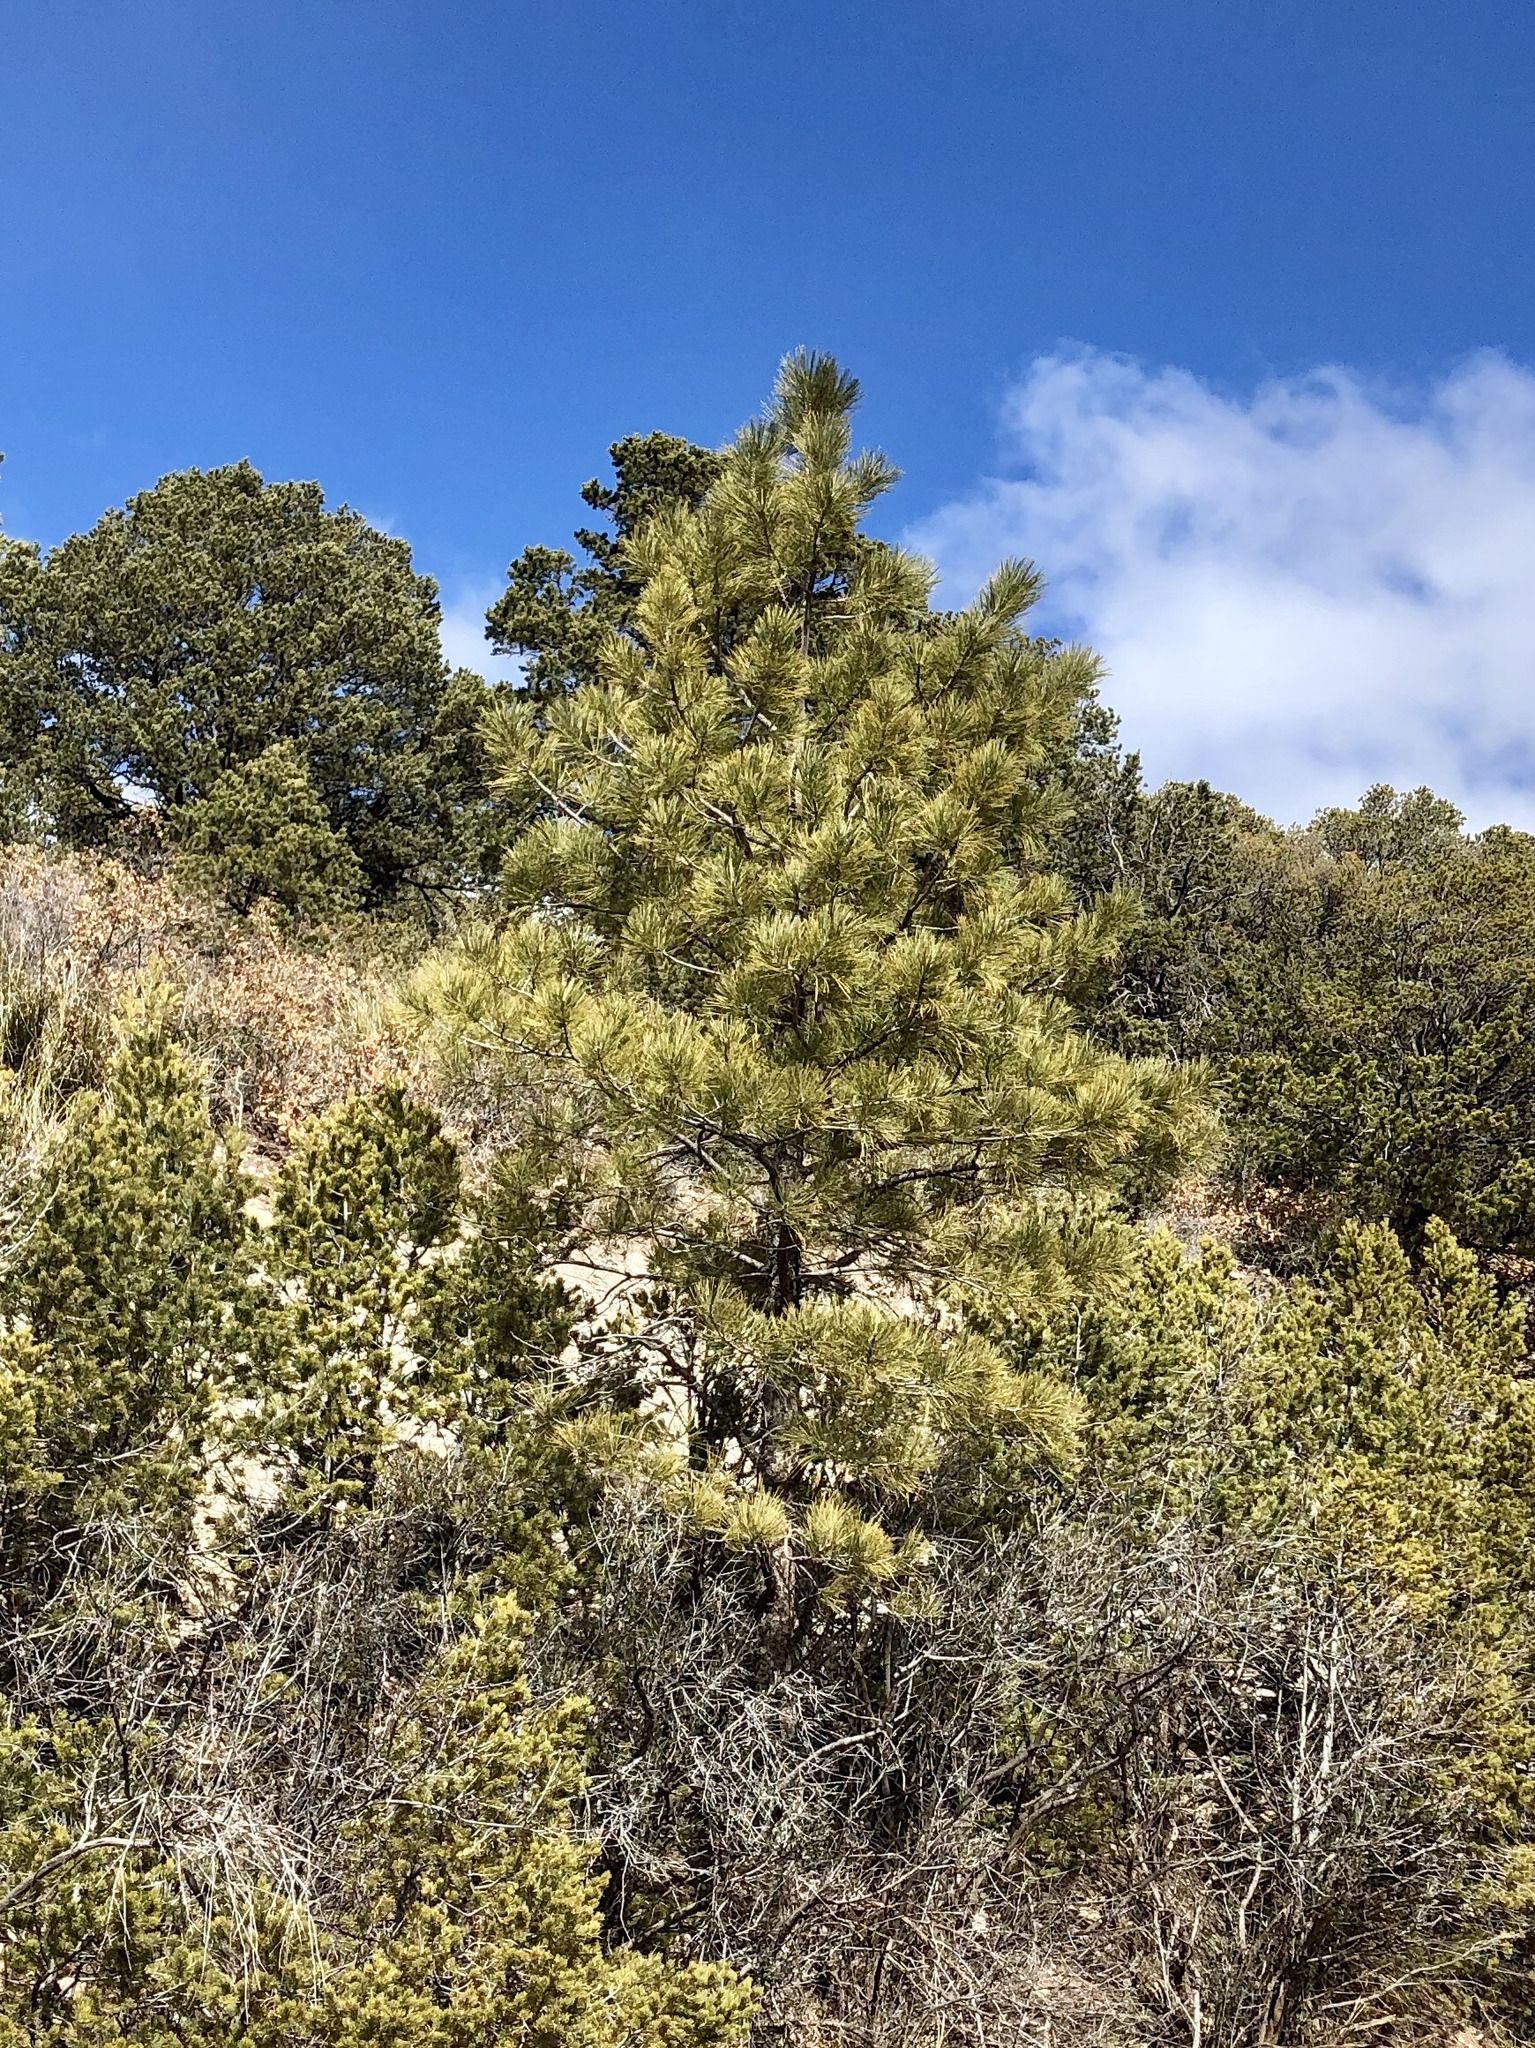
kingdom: Plantae
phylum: Tracheophyta
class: Pinopsida
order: Pinales
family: Pinaceae
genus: Pinus
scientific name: Pinus ponderosa
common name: Western yellow-pine
